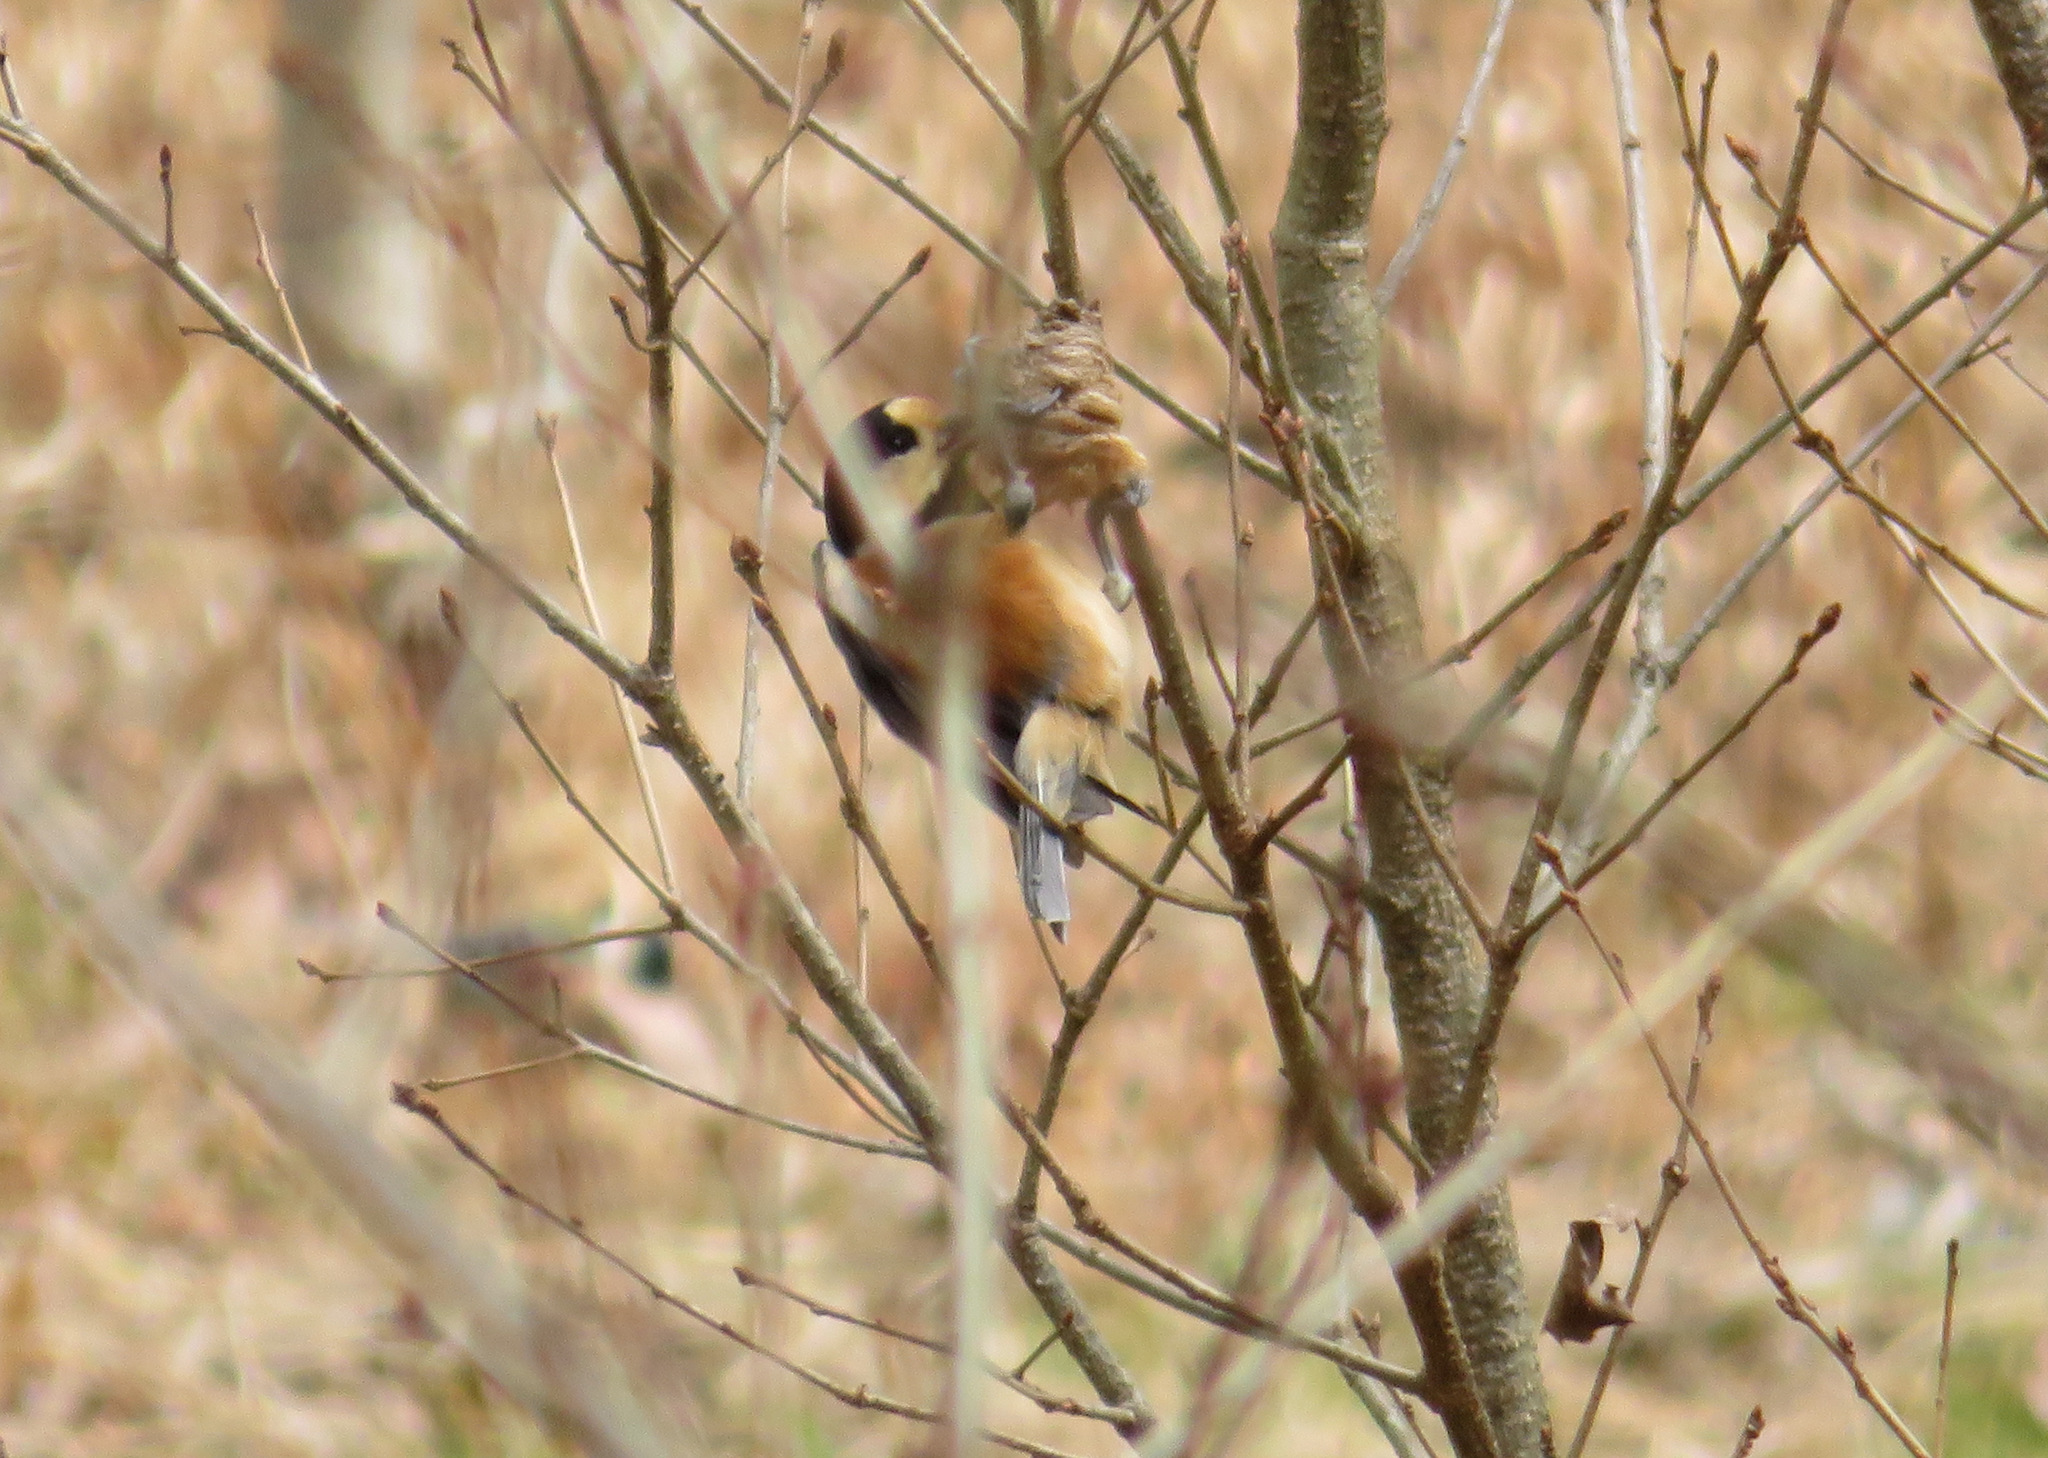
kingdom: Animalia
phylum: Chordata
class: Aves
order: Passeriformes
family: Paridae
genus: Poecile
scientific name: Poecile varius
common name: Varied tit
